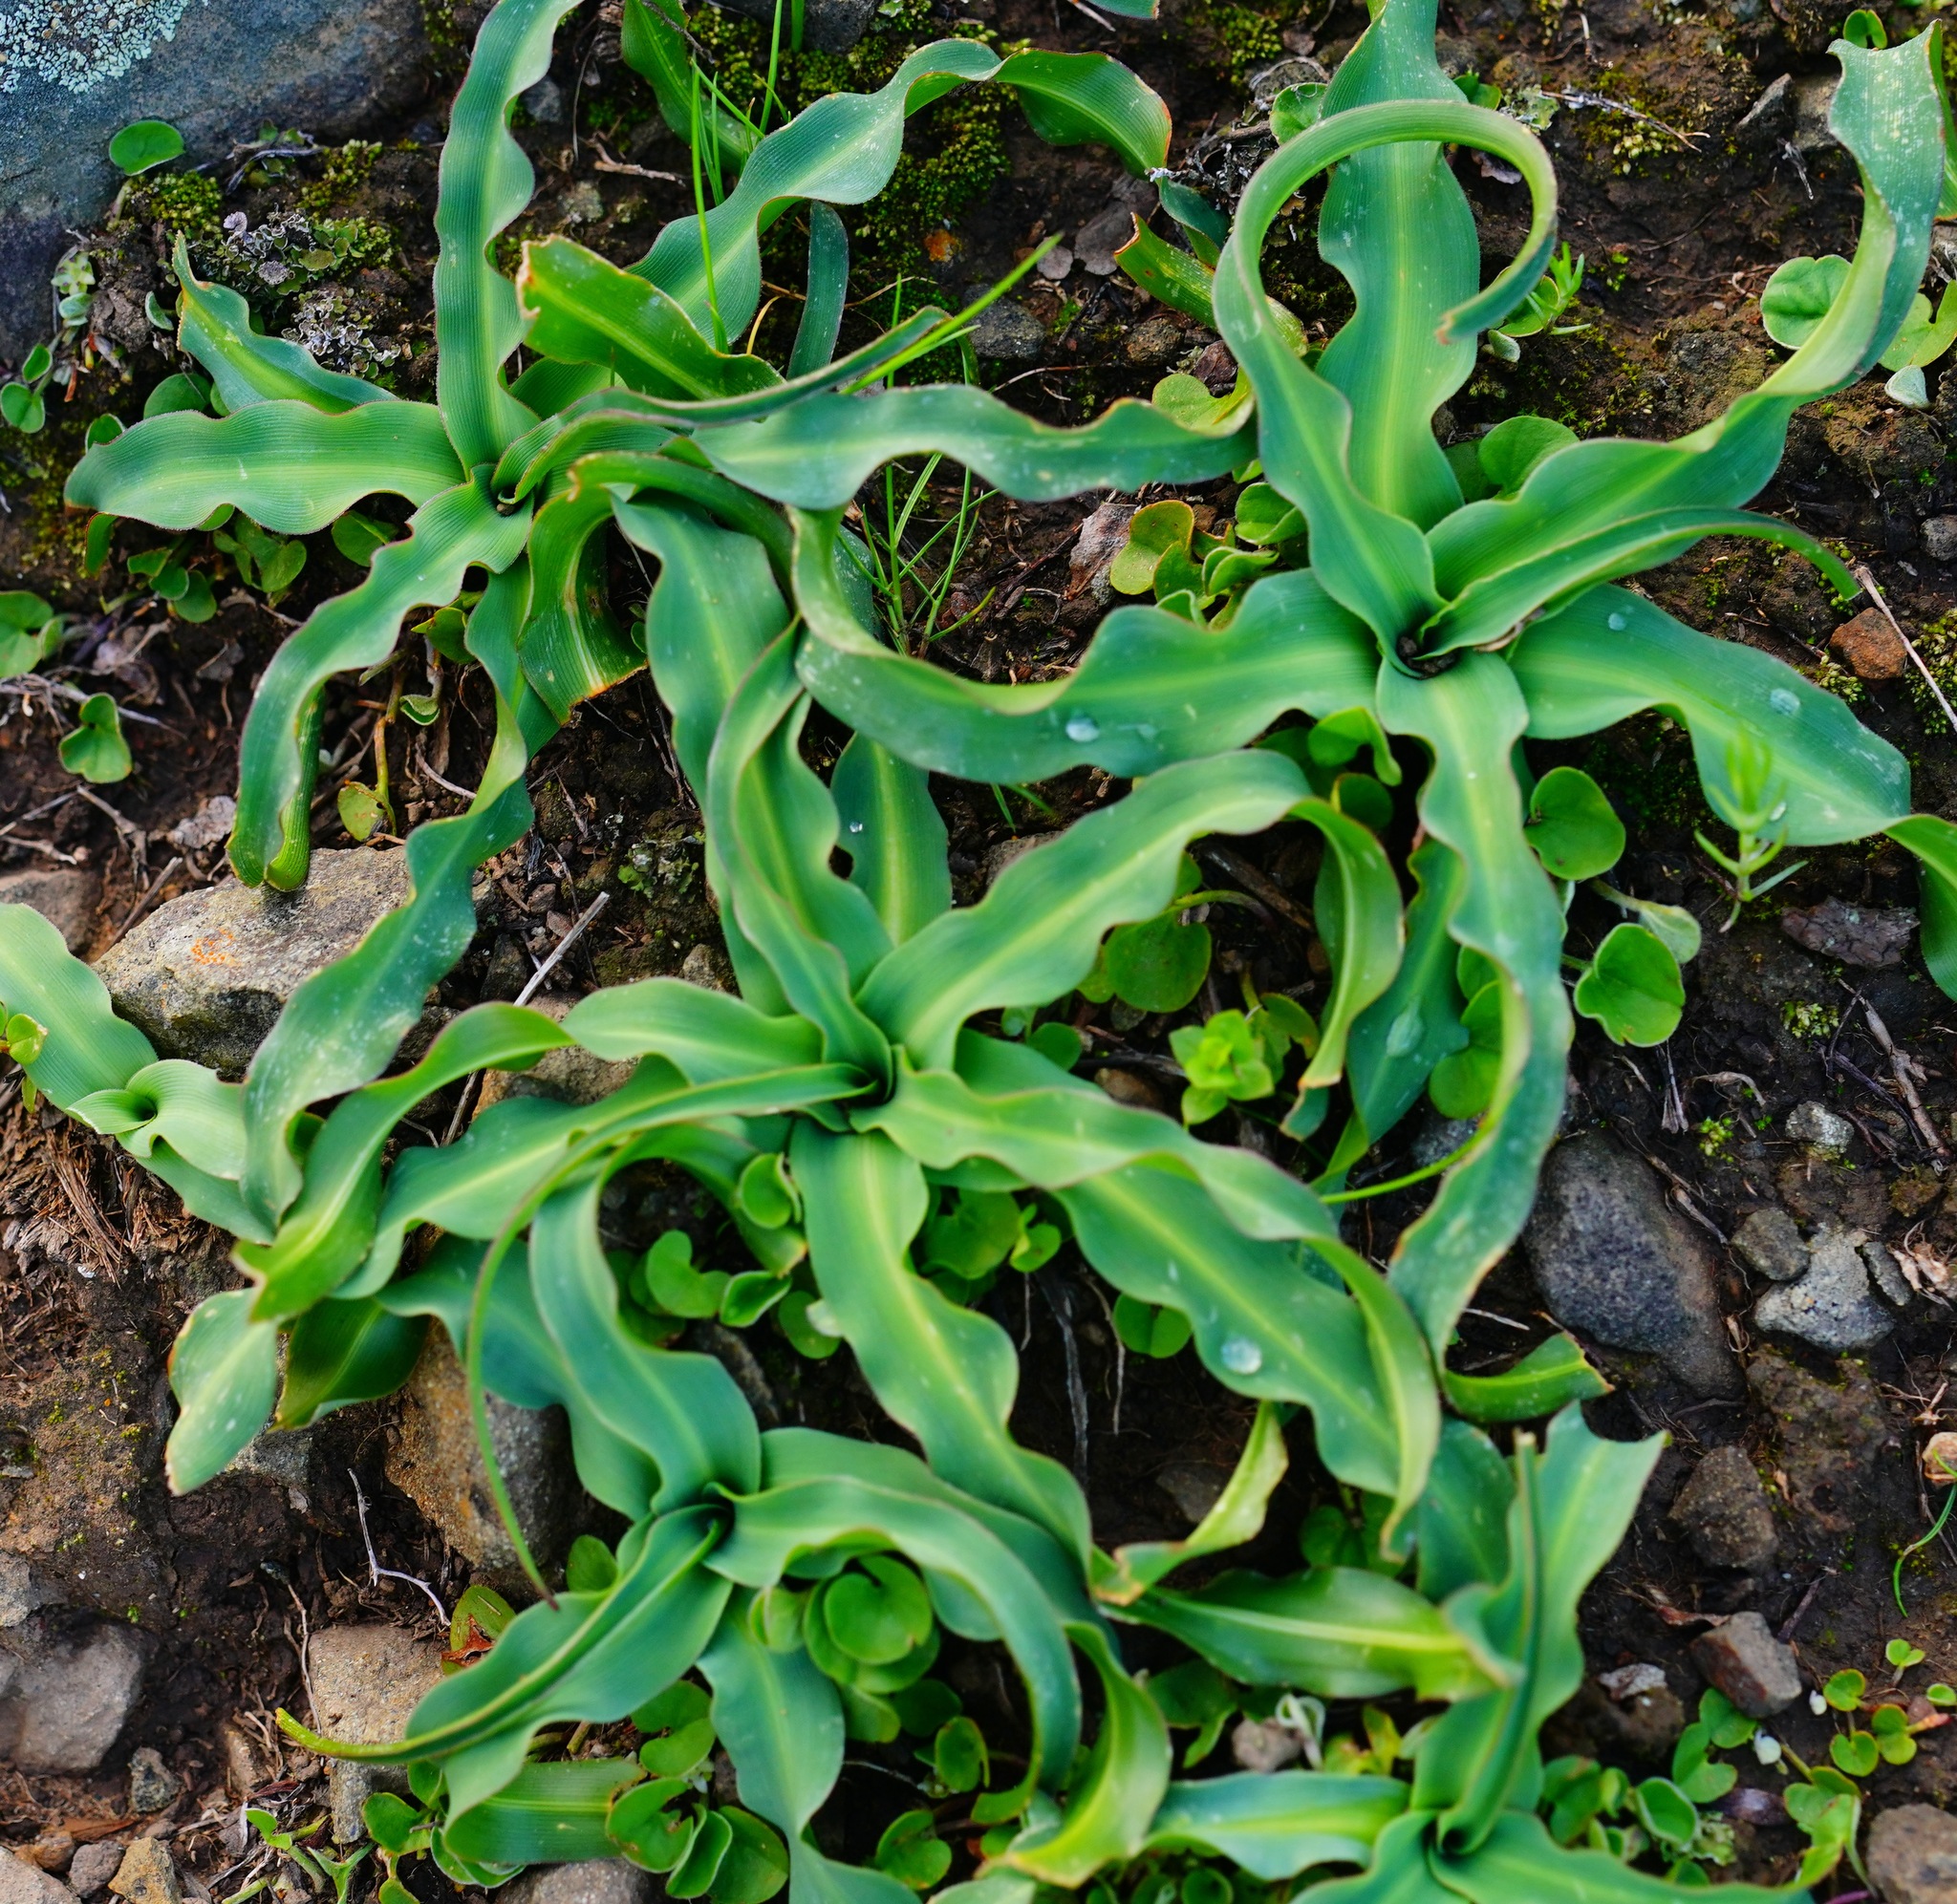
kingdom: Plantae
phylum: Tracheophyta
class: Liliopsida
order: Asparagales
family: Asparagaceae
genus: Chlorogalum
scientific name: Chlorogalum pomeridianum
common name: Amole
